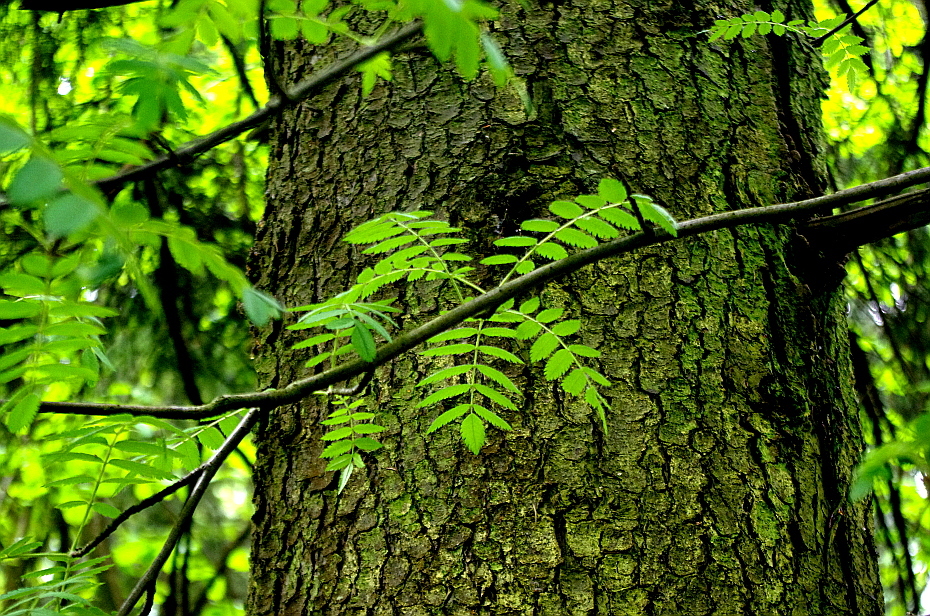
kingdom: Plantae
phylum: Tracheophyta
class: Magnoliopsida
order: Rosales
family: Rosaceae
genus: Sorbus
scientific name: Sorbus aucuparia
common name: Rowan
